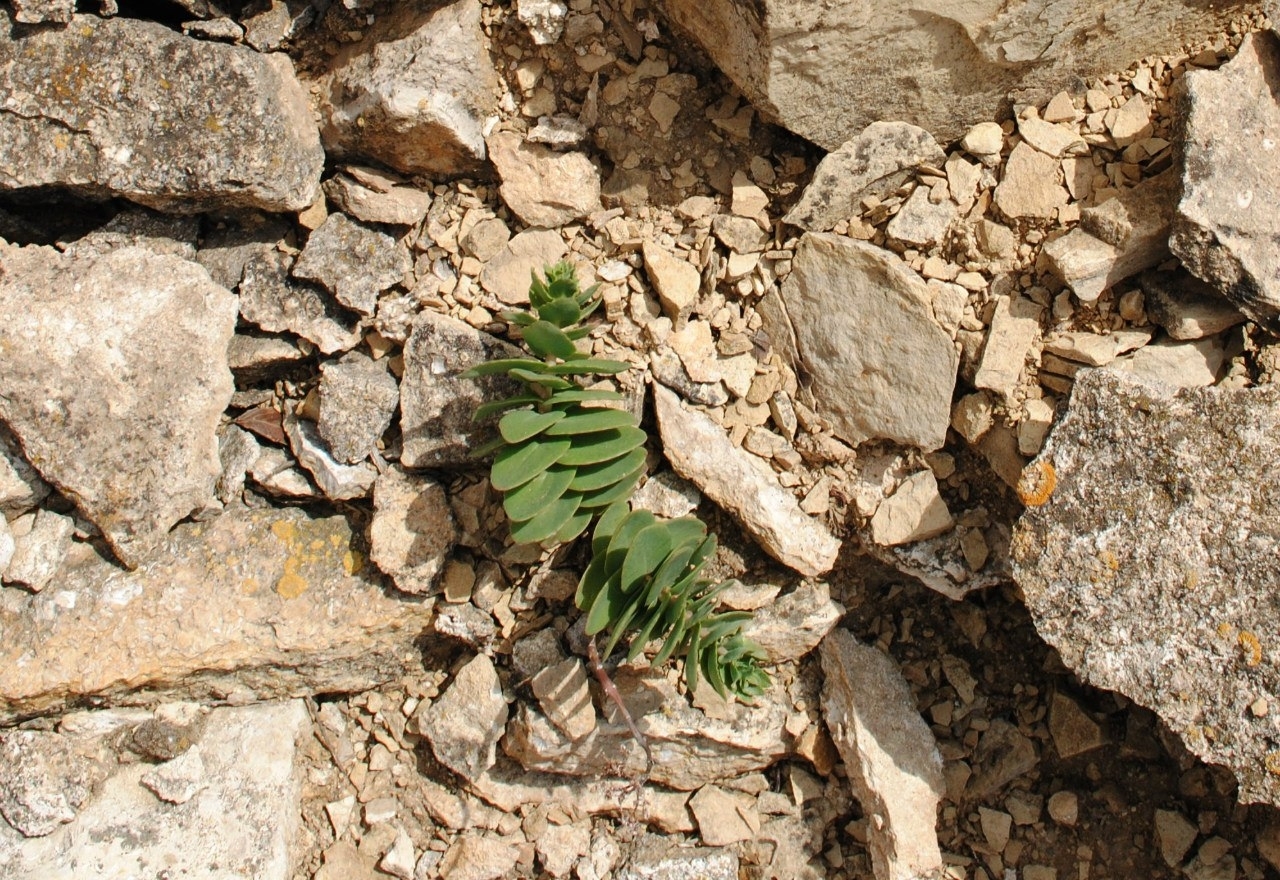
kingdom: Plantae
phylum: Tracheophyta
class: Magnoliopsida
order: Saxifragales
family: Crassulaceae
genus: Hylotelephium
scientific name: Hylotelephium maximum
